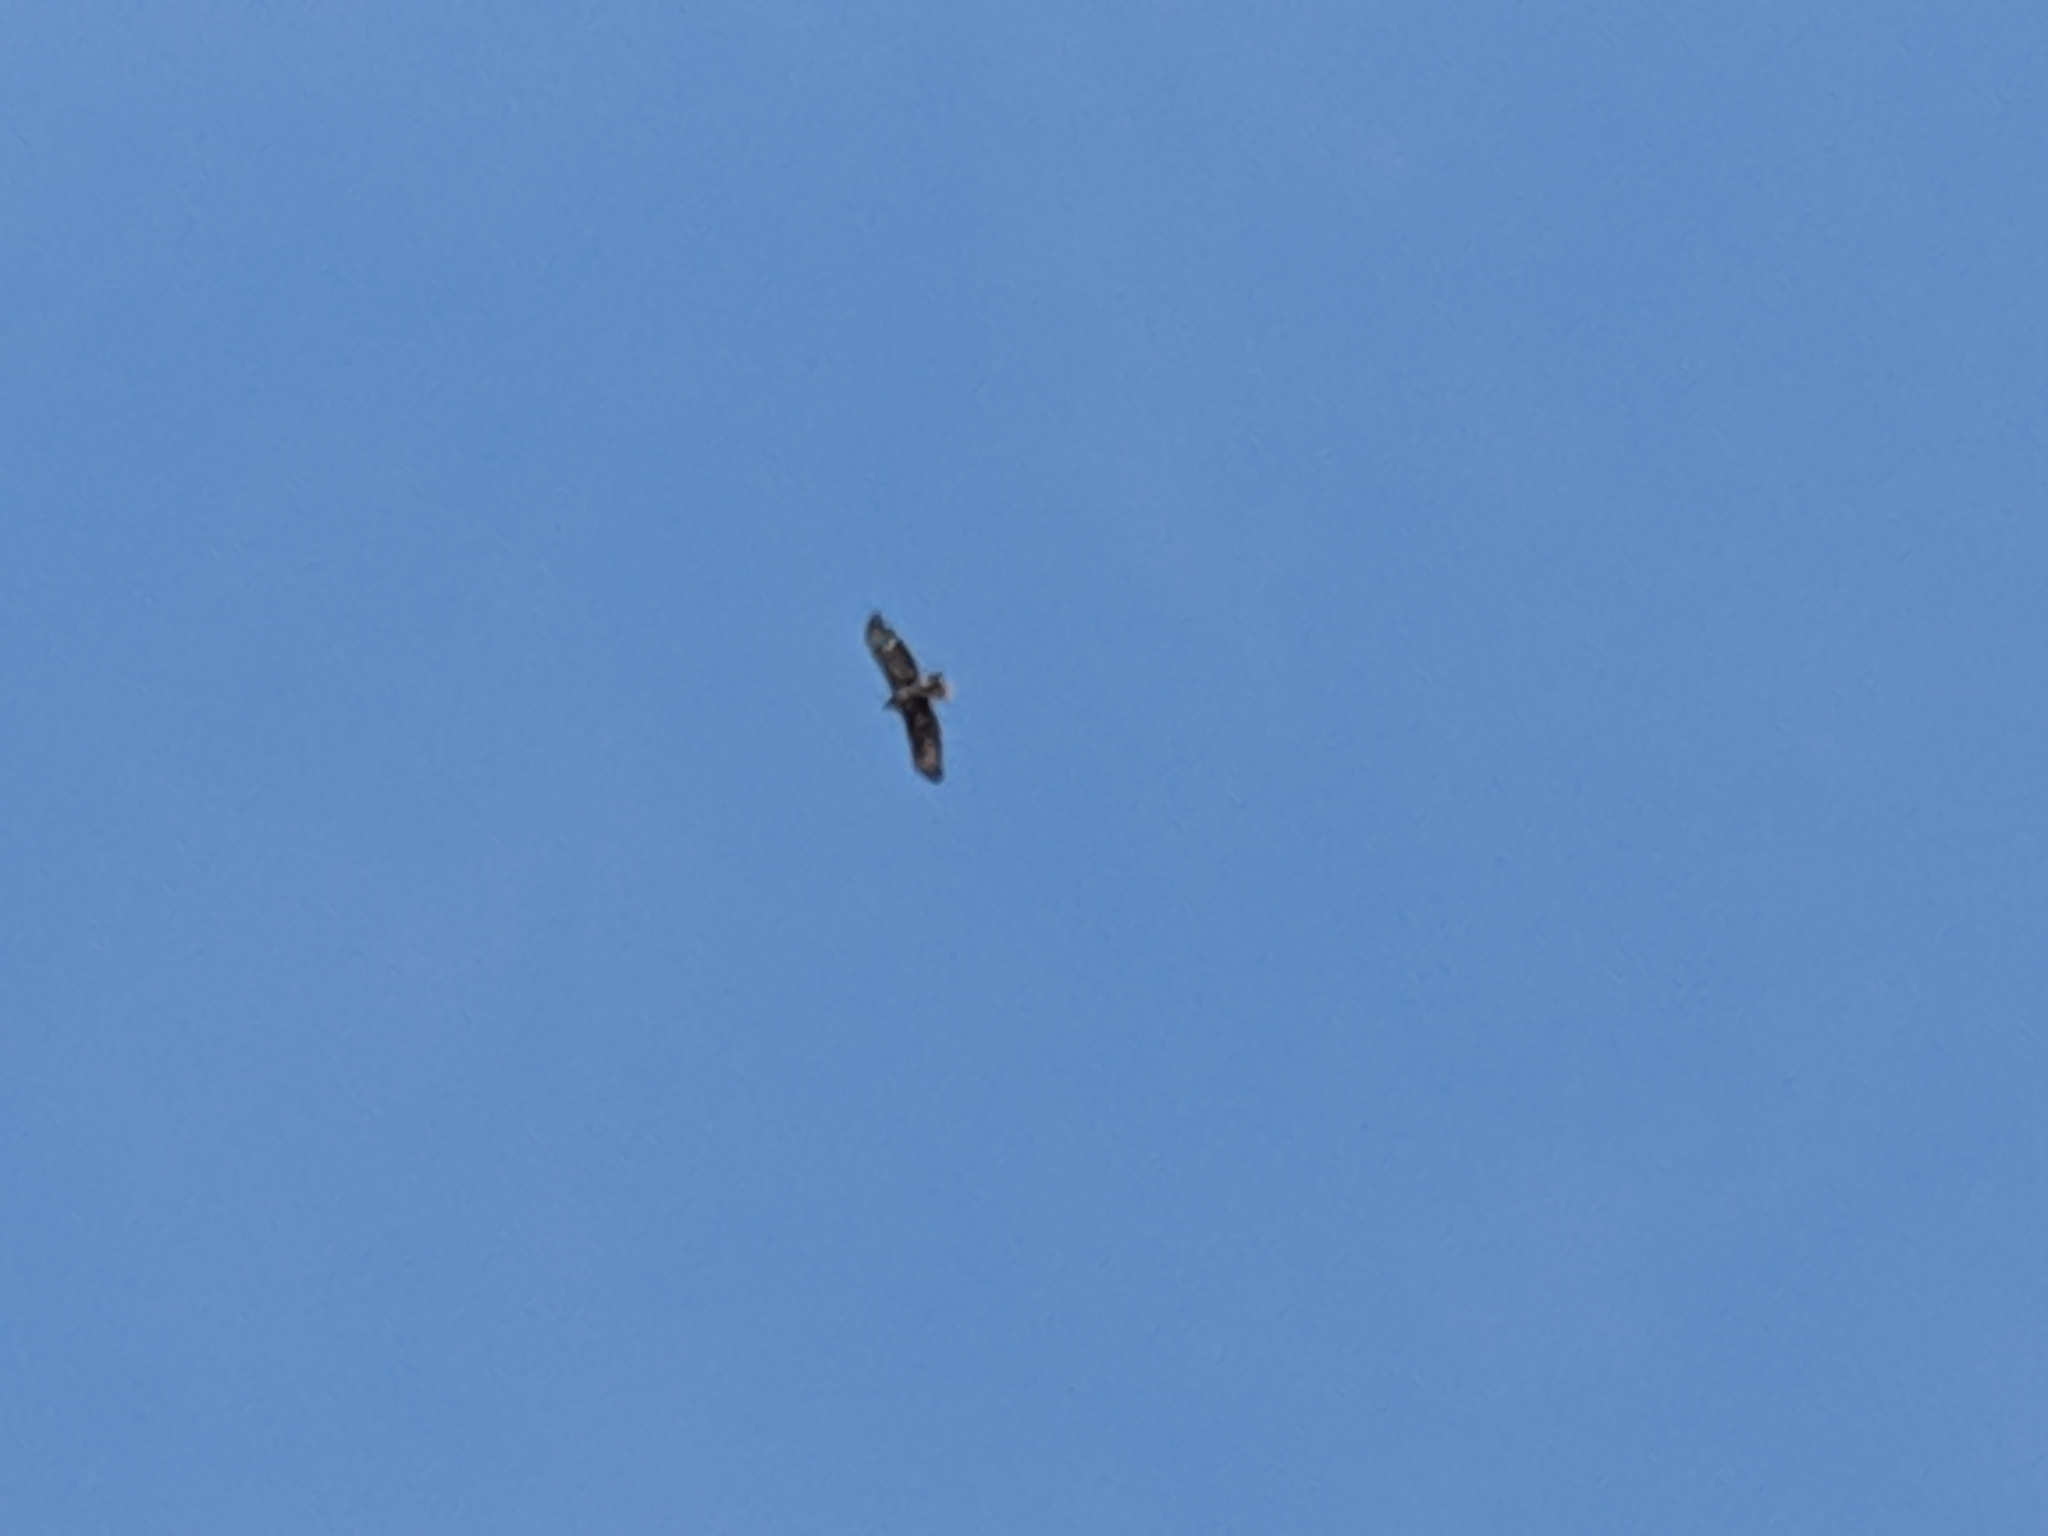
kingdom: Animalia
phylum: Chordata
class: Aves
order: Accipitriformes
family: Accipitridae
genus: Buteo
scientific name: Buteo buteo
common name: Common buzzard
